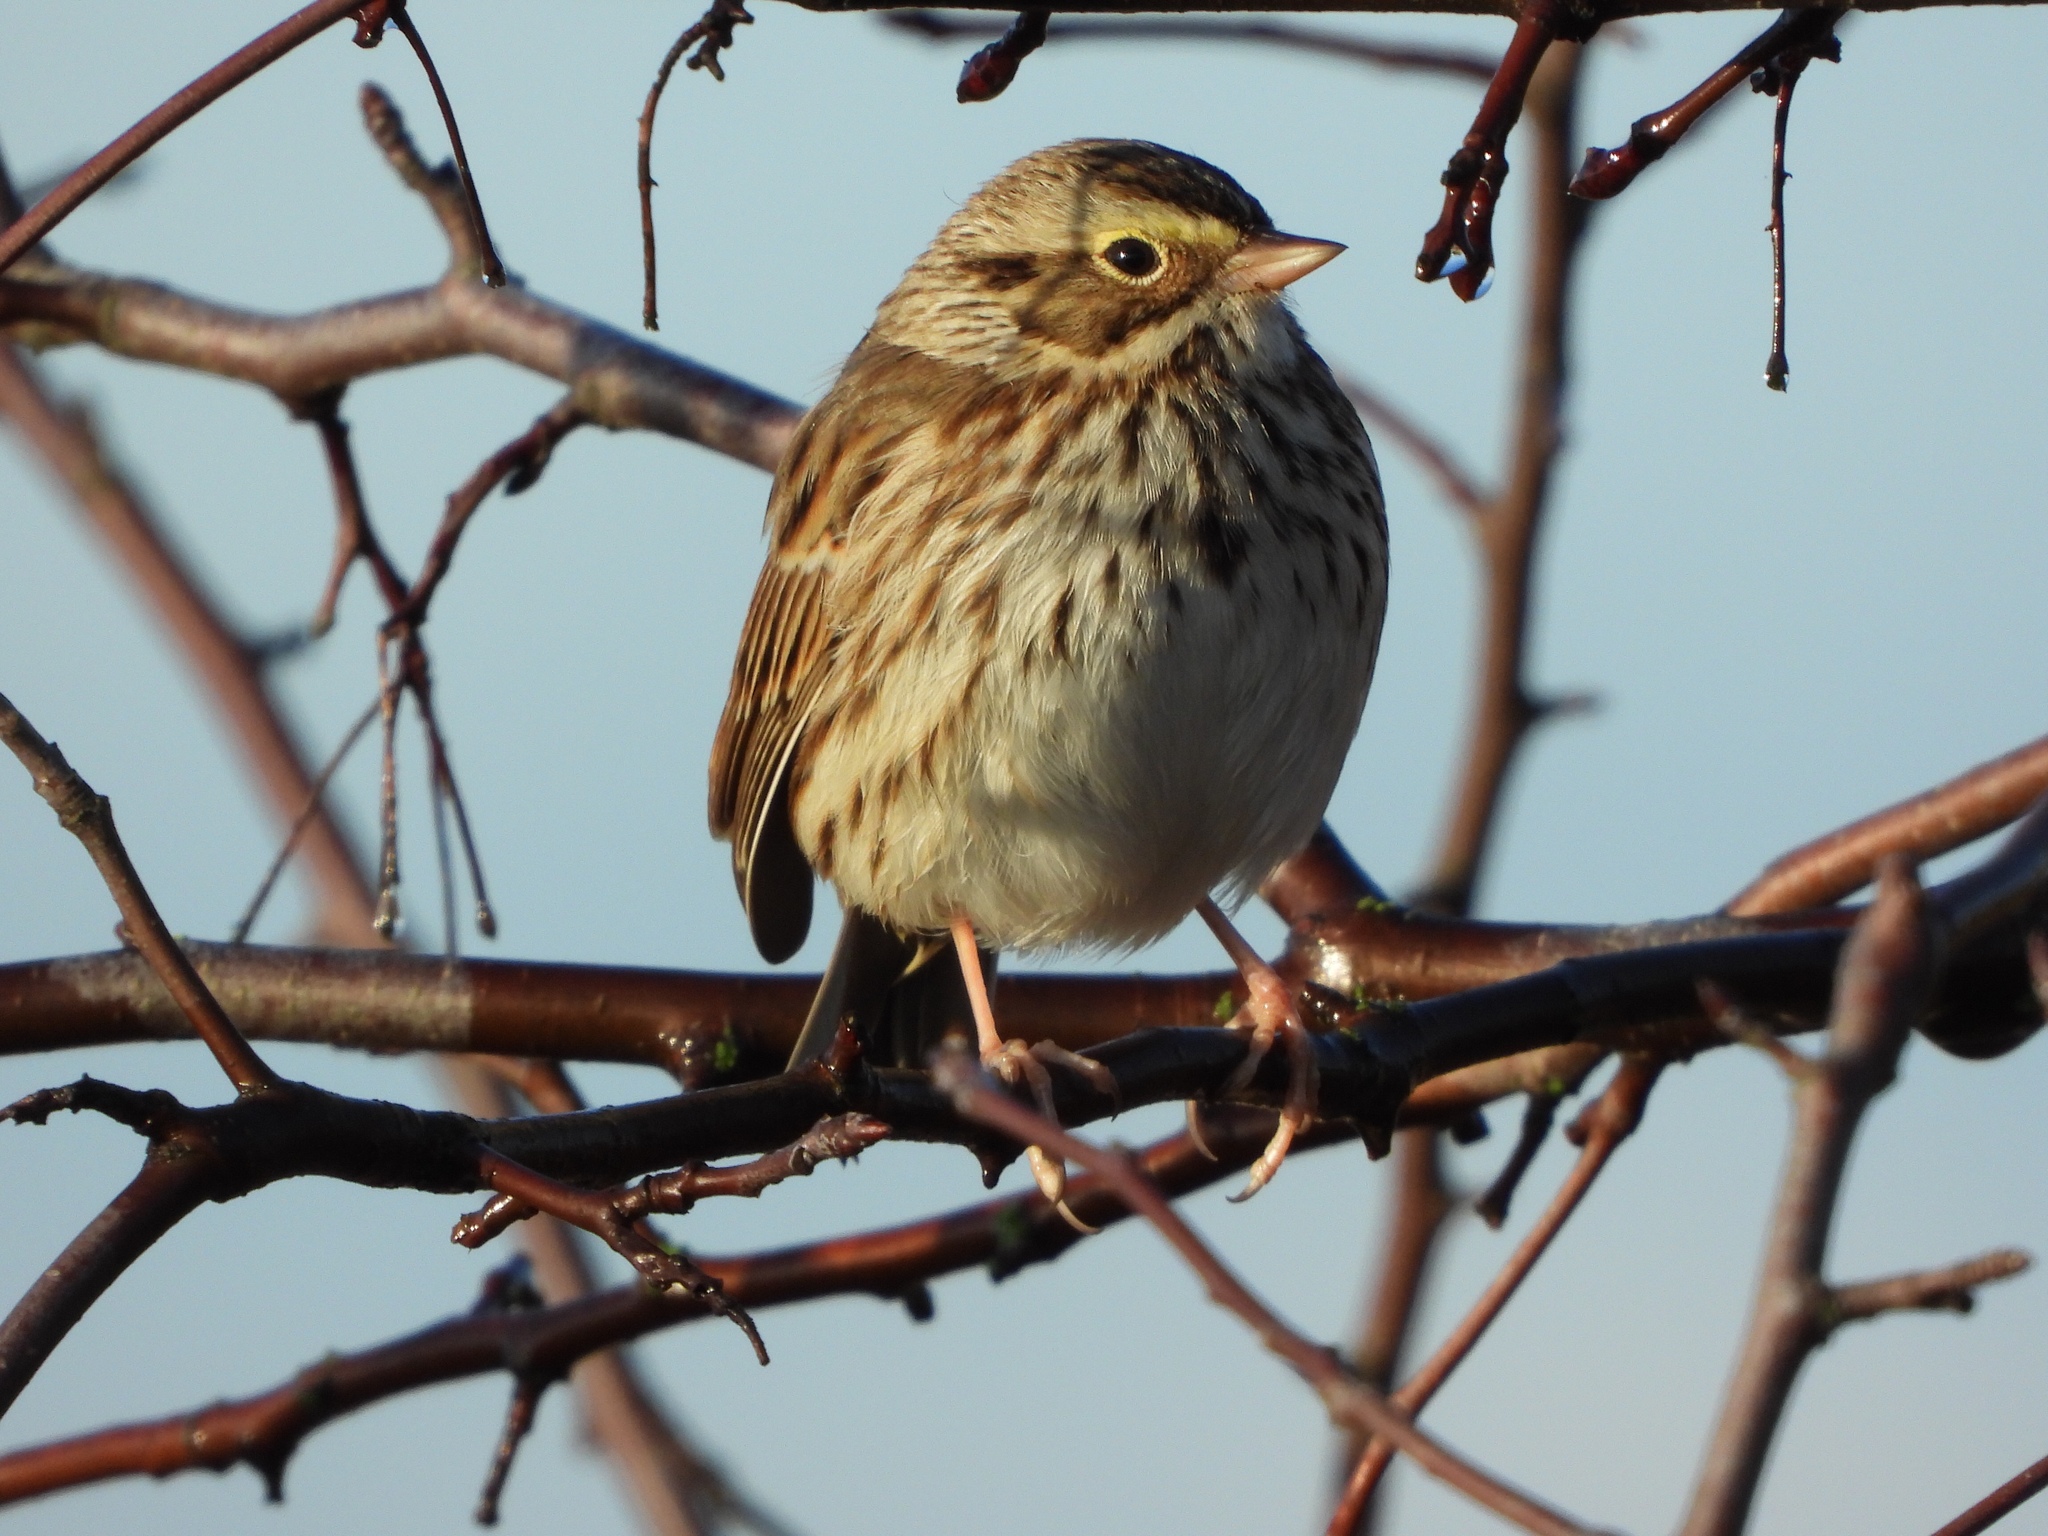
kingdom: Animalia
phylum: Chordata
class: Aves
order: Passeriformes
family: Passerellidae
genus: Passerculus
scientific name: Passerculus sandwichensis
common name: Savannah sparrow
